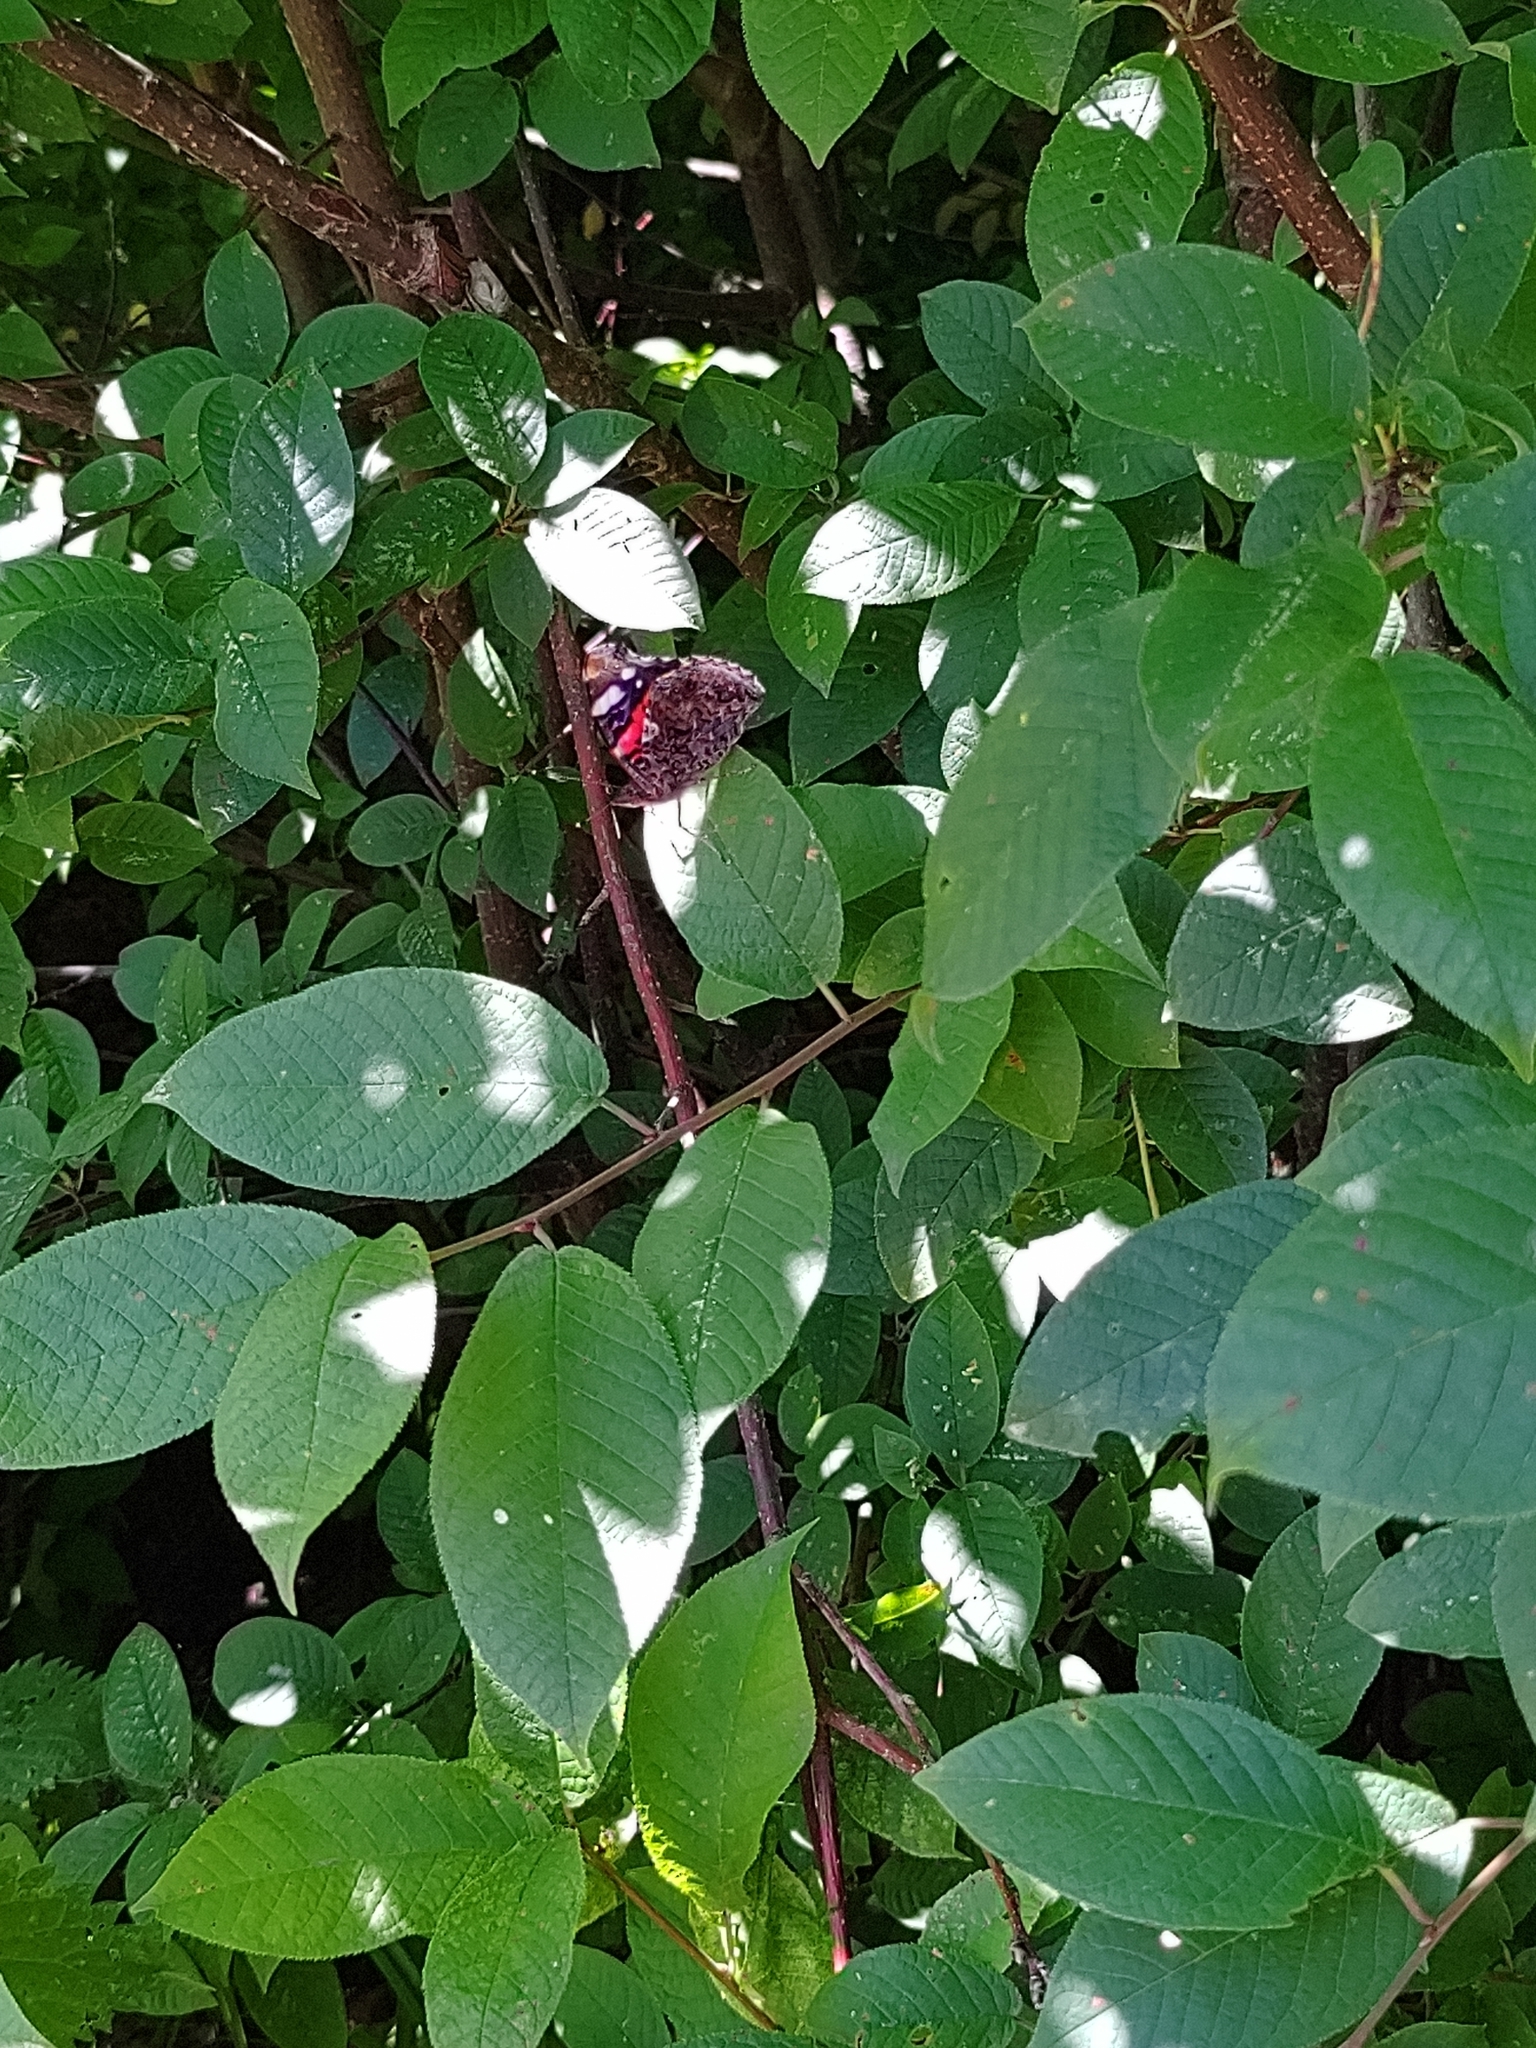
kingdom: Animalia
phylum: Arthropoda
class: Insecta
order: Lepidoptera
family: Nymphalidae
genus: Vanessa
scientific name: Vanessa atalanta
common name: Red admiral
